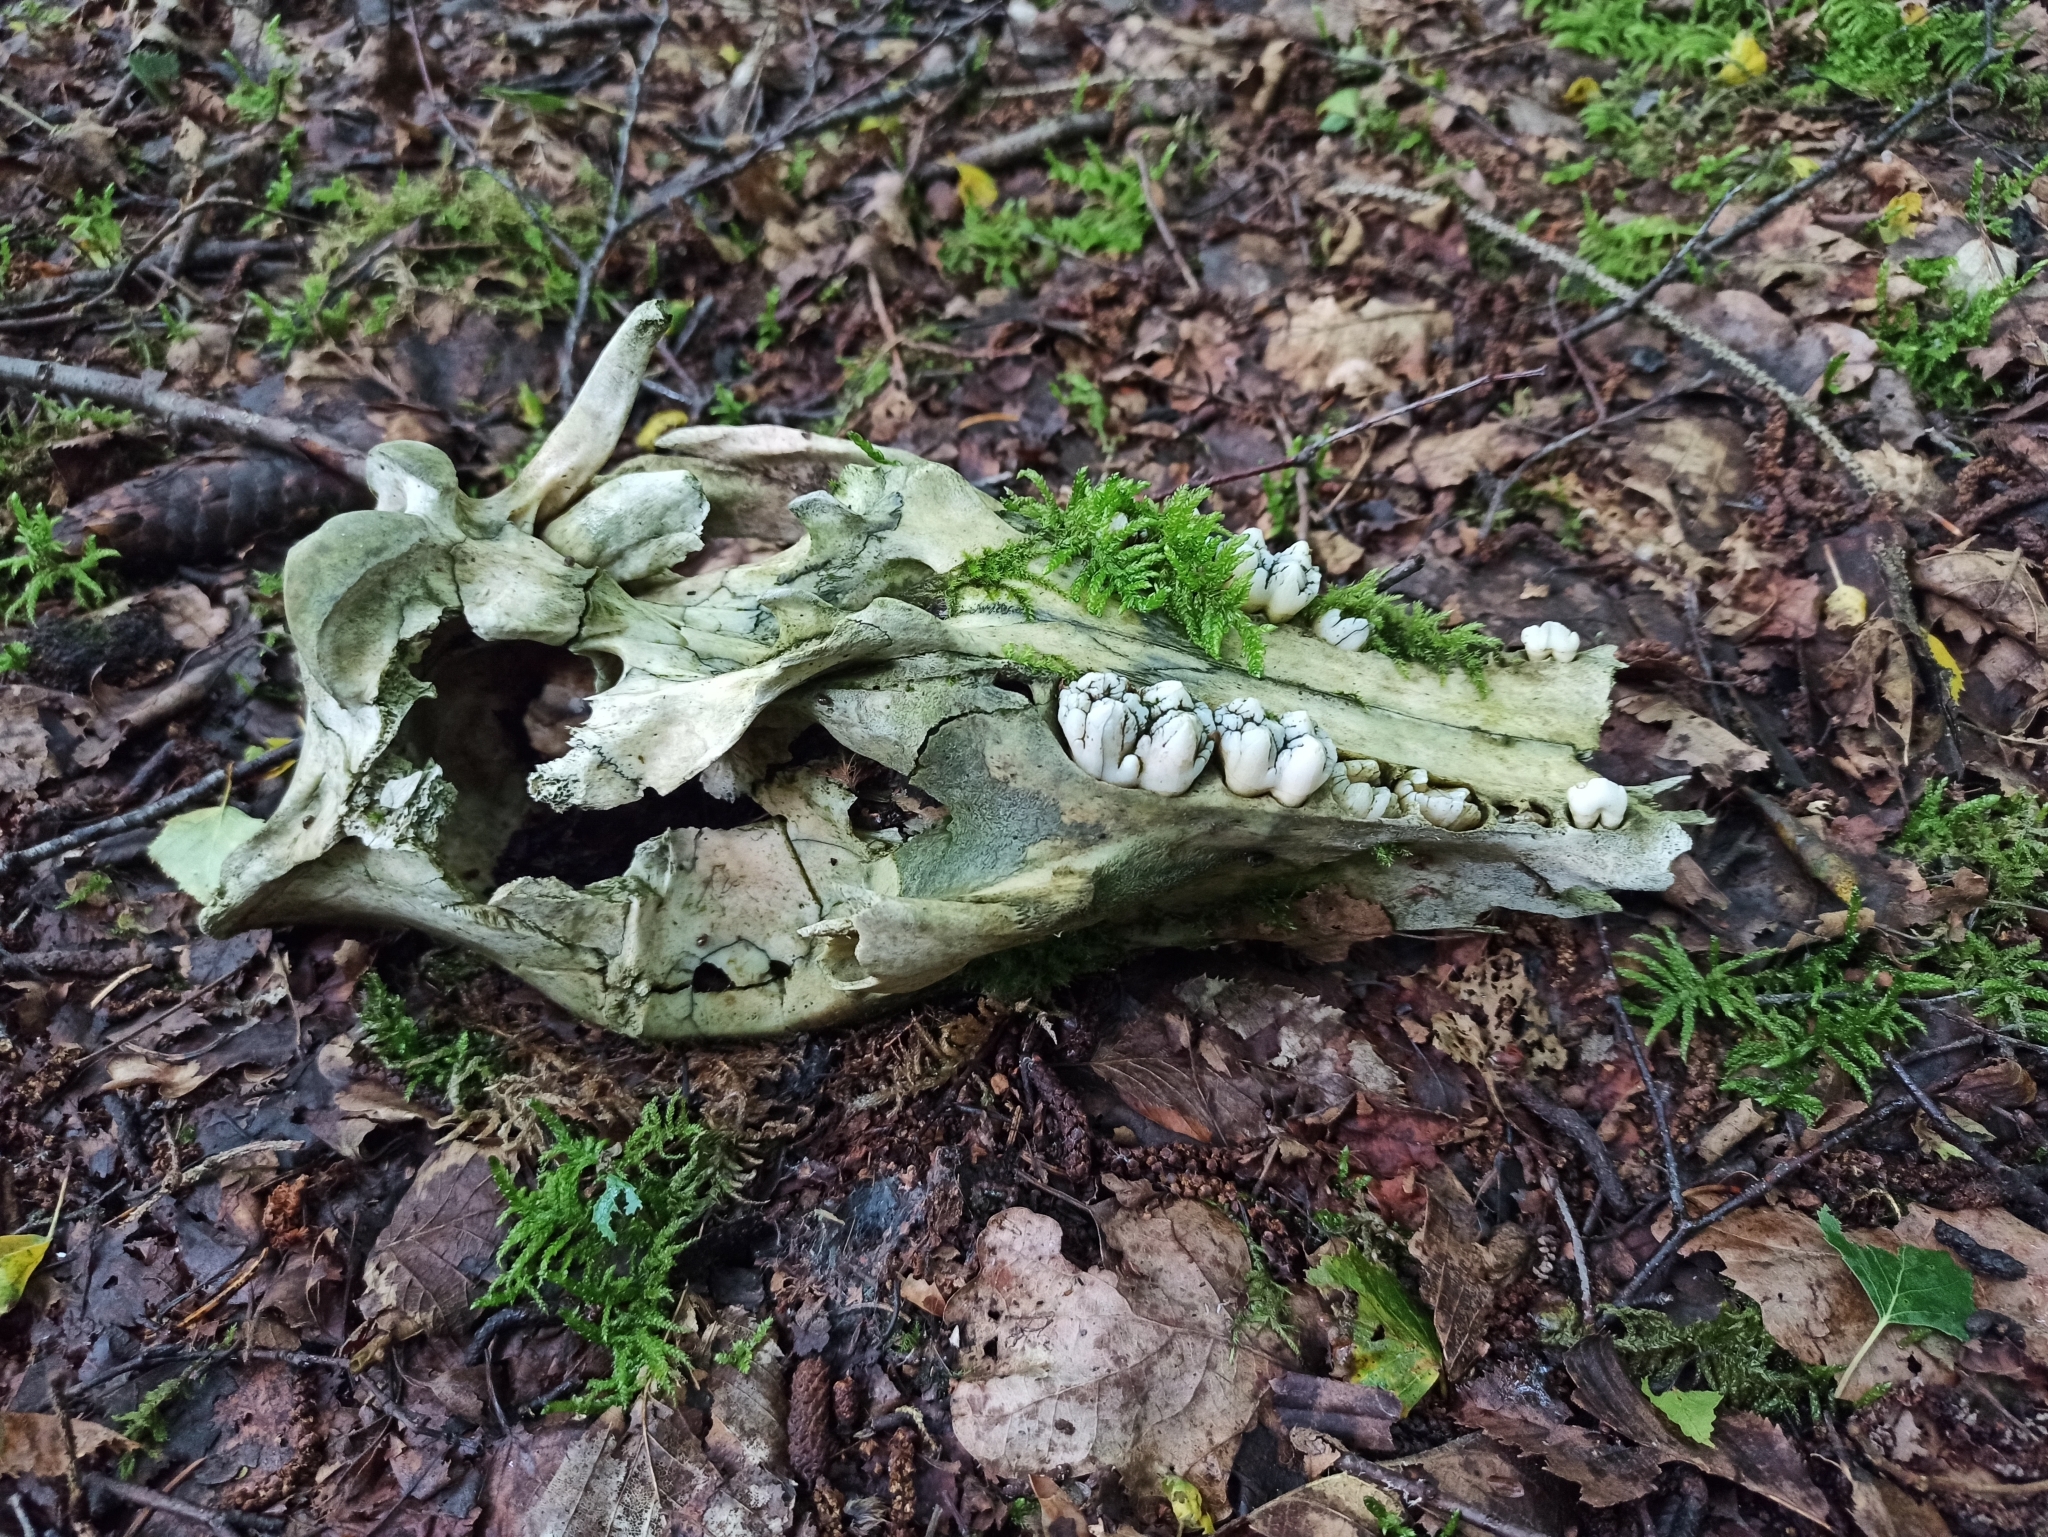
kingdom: Animalia
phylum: Chordata
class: Mammalia
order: Artiodactyla
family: Suidae
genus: Sus
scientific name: Sus scrofa
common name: Wild boar
